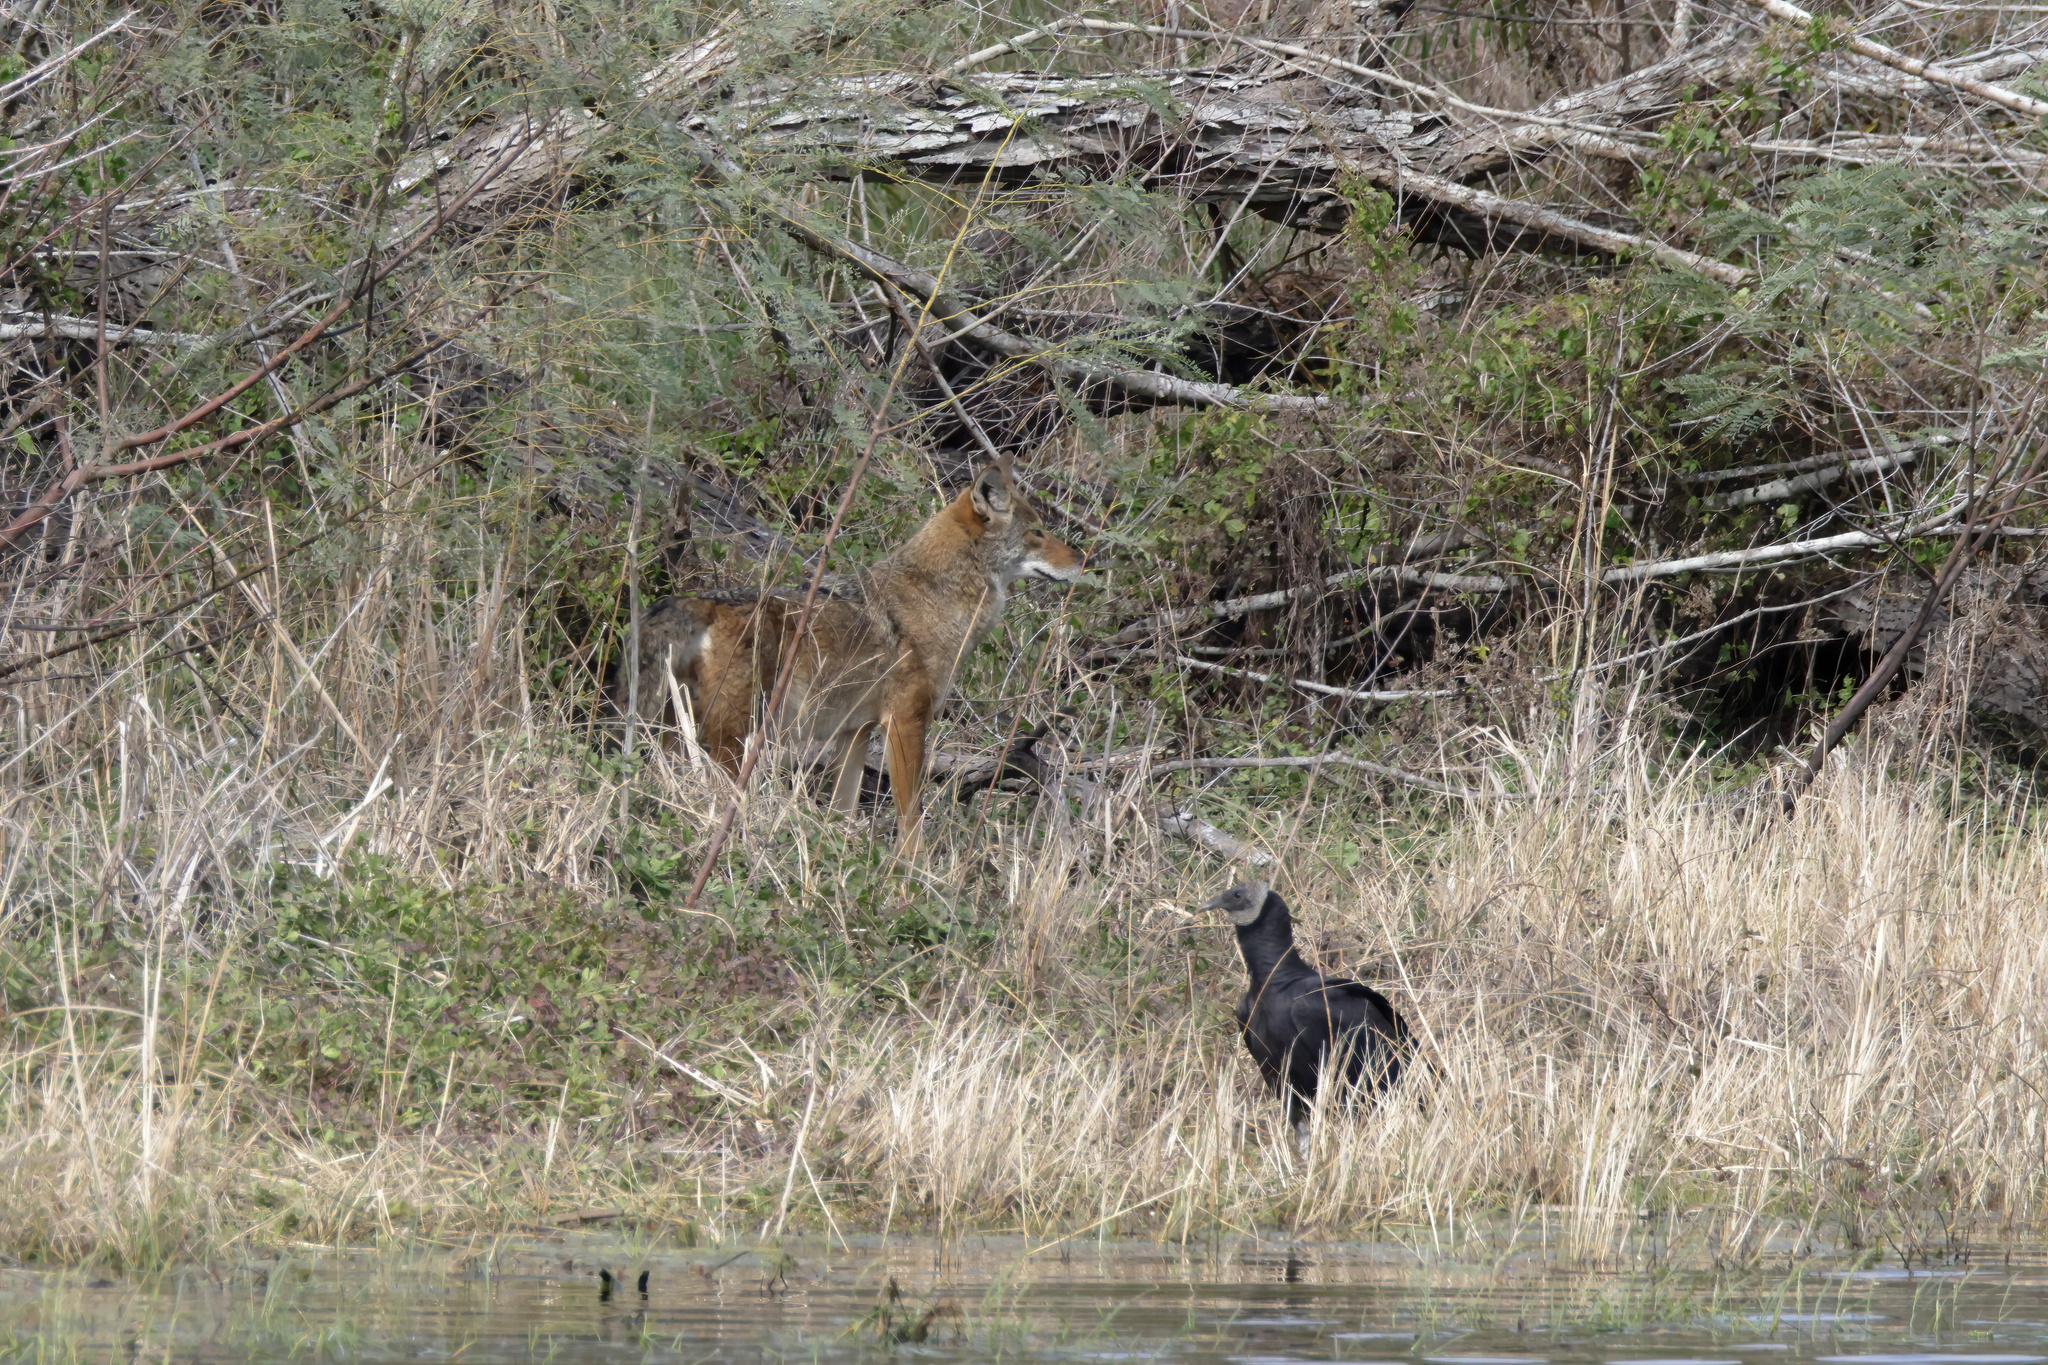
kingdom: Animalia
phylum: Chordata
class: Mammalia
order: Carnivora
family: Canidae
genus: Canis
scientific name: Canis latrans
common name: Coyote
